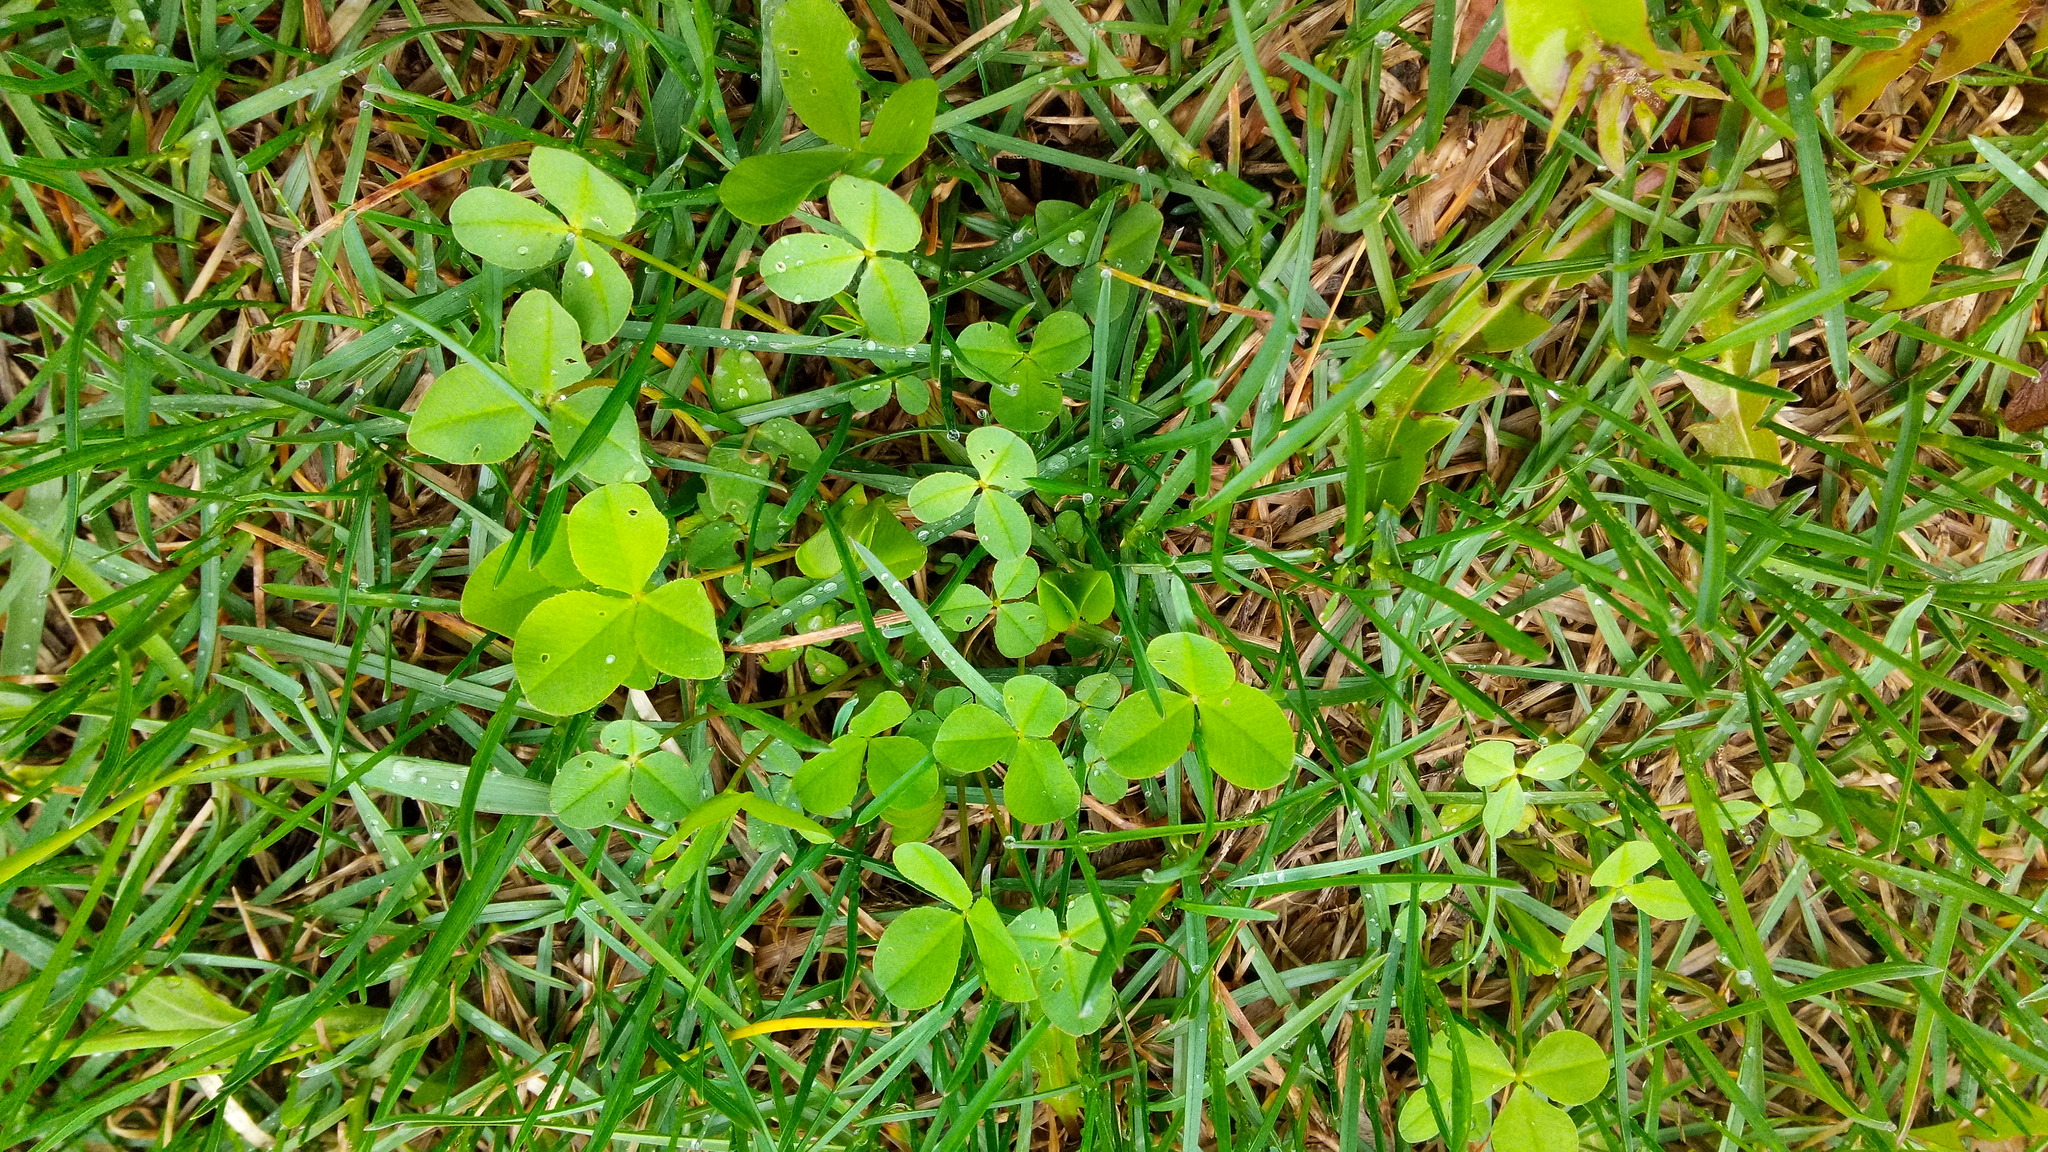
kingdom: Plantae
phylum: Tracheophyta
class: Magnoliopsida
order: Fabales
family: Fabaceae
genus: Trifolium
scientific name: Trifolium repens
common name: White clover
